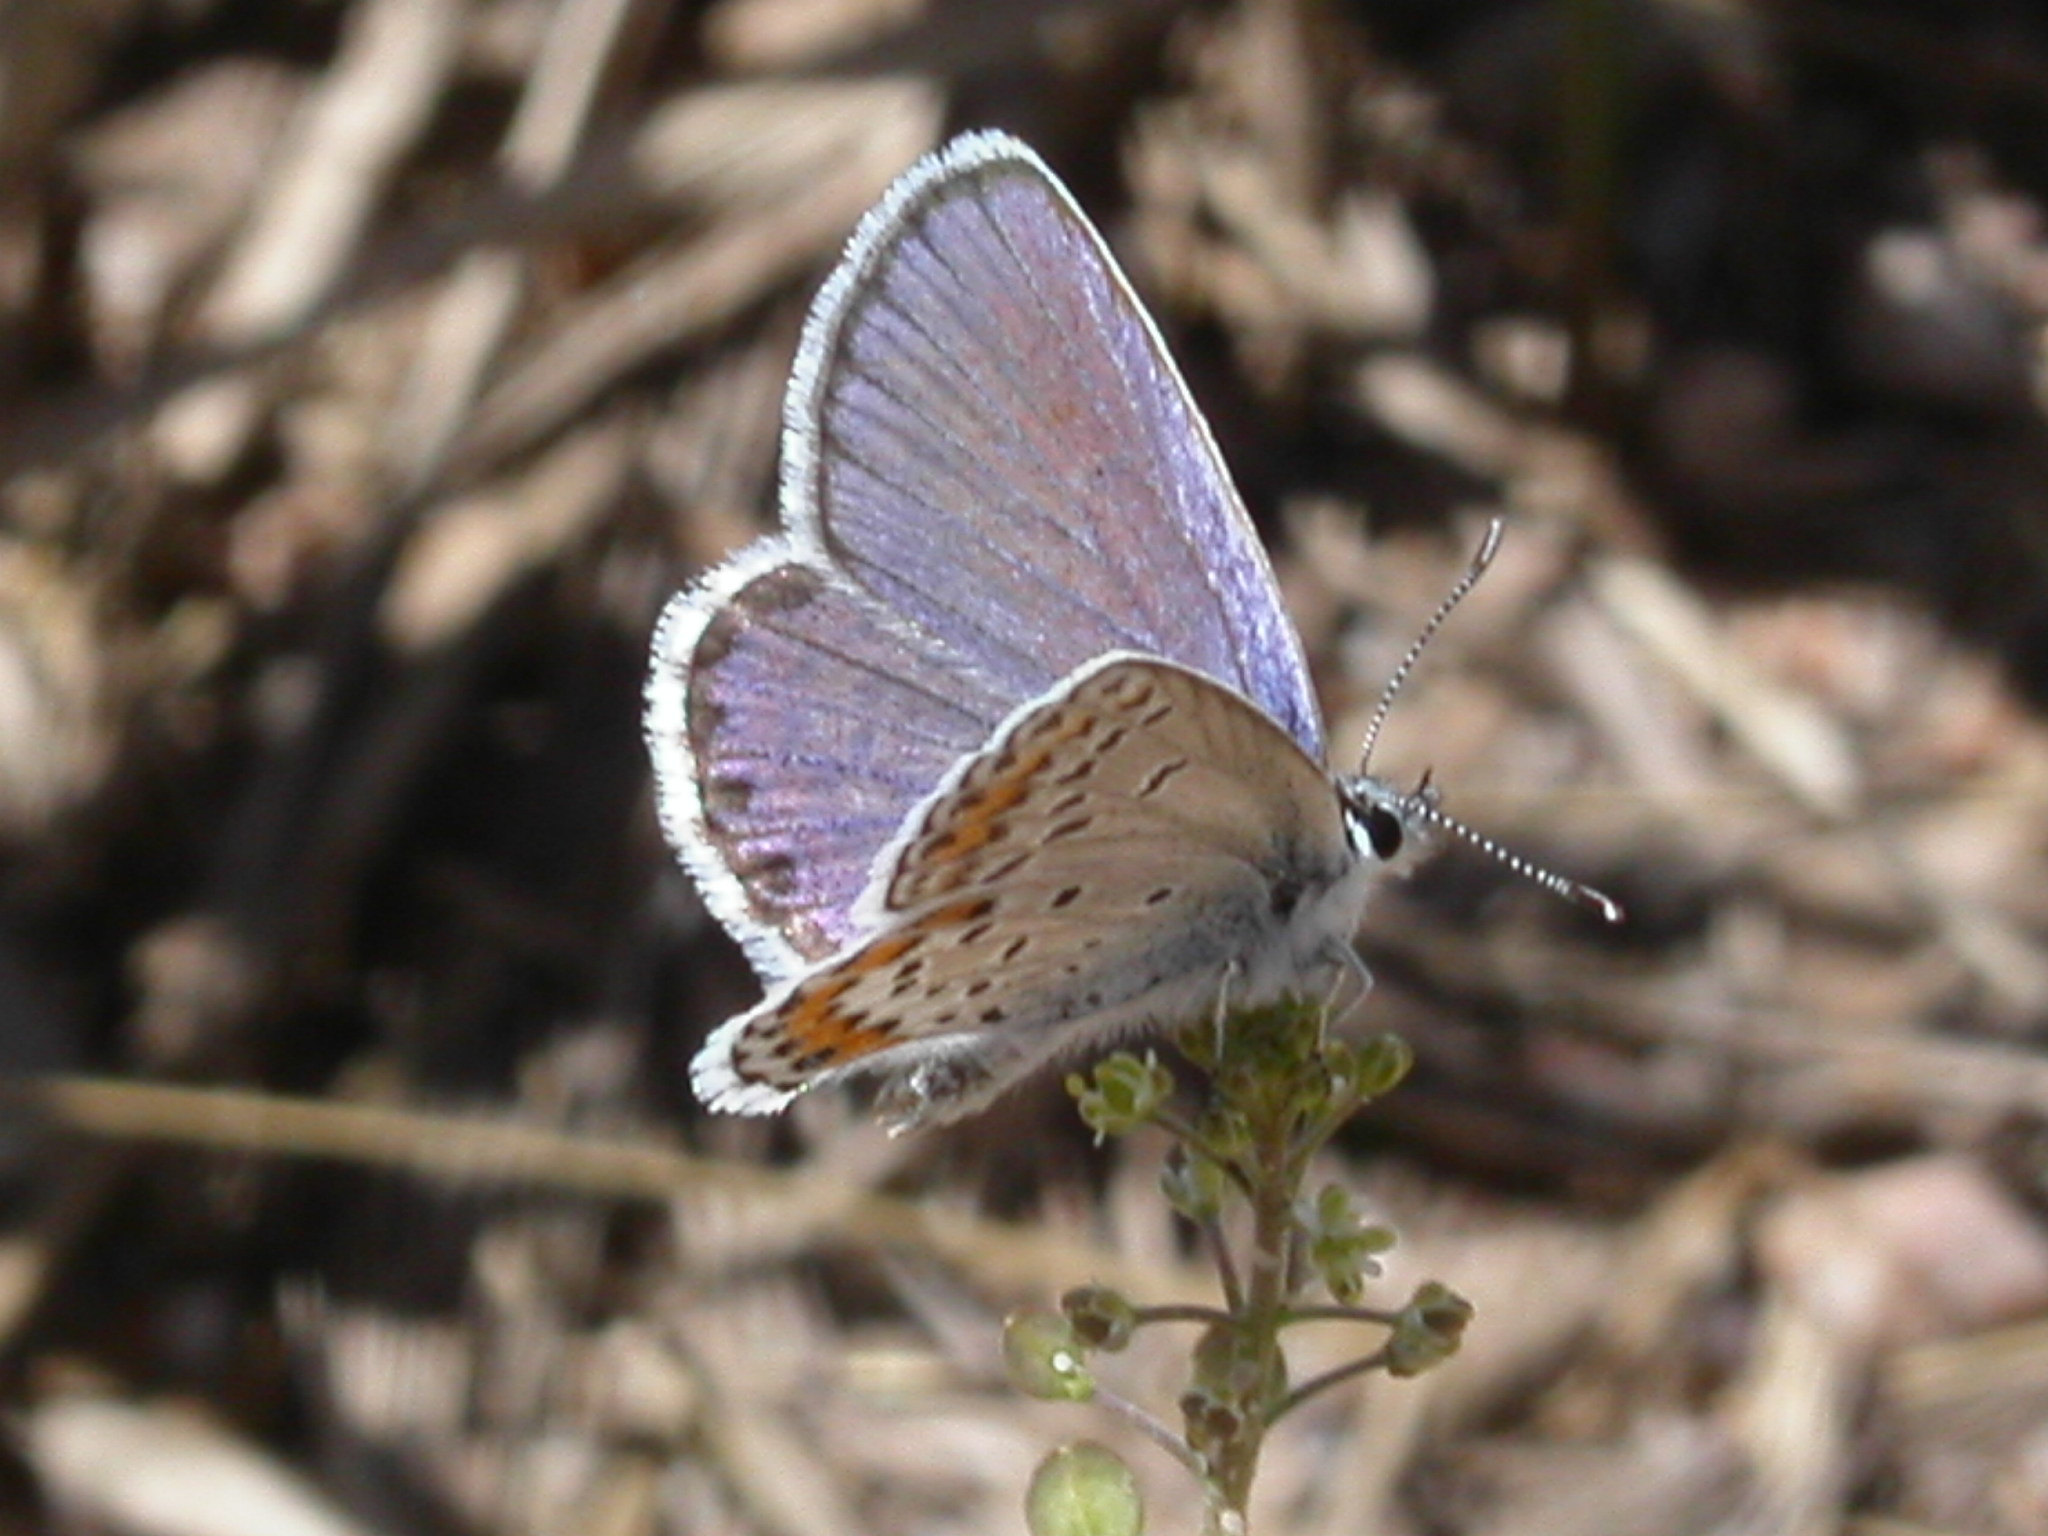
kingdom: Animalia
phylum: Arthropoda
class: Insecta
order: Lepidoptera
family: Lycaenidae
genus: Lycaeides
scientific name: Lycaeides melissa
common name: Melissa blue
